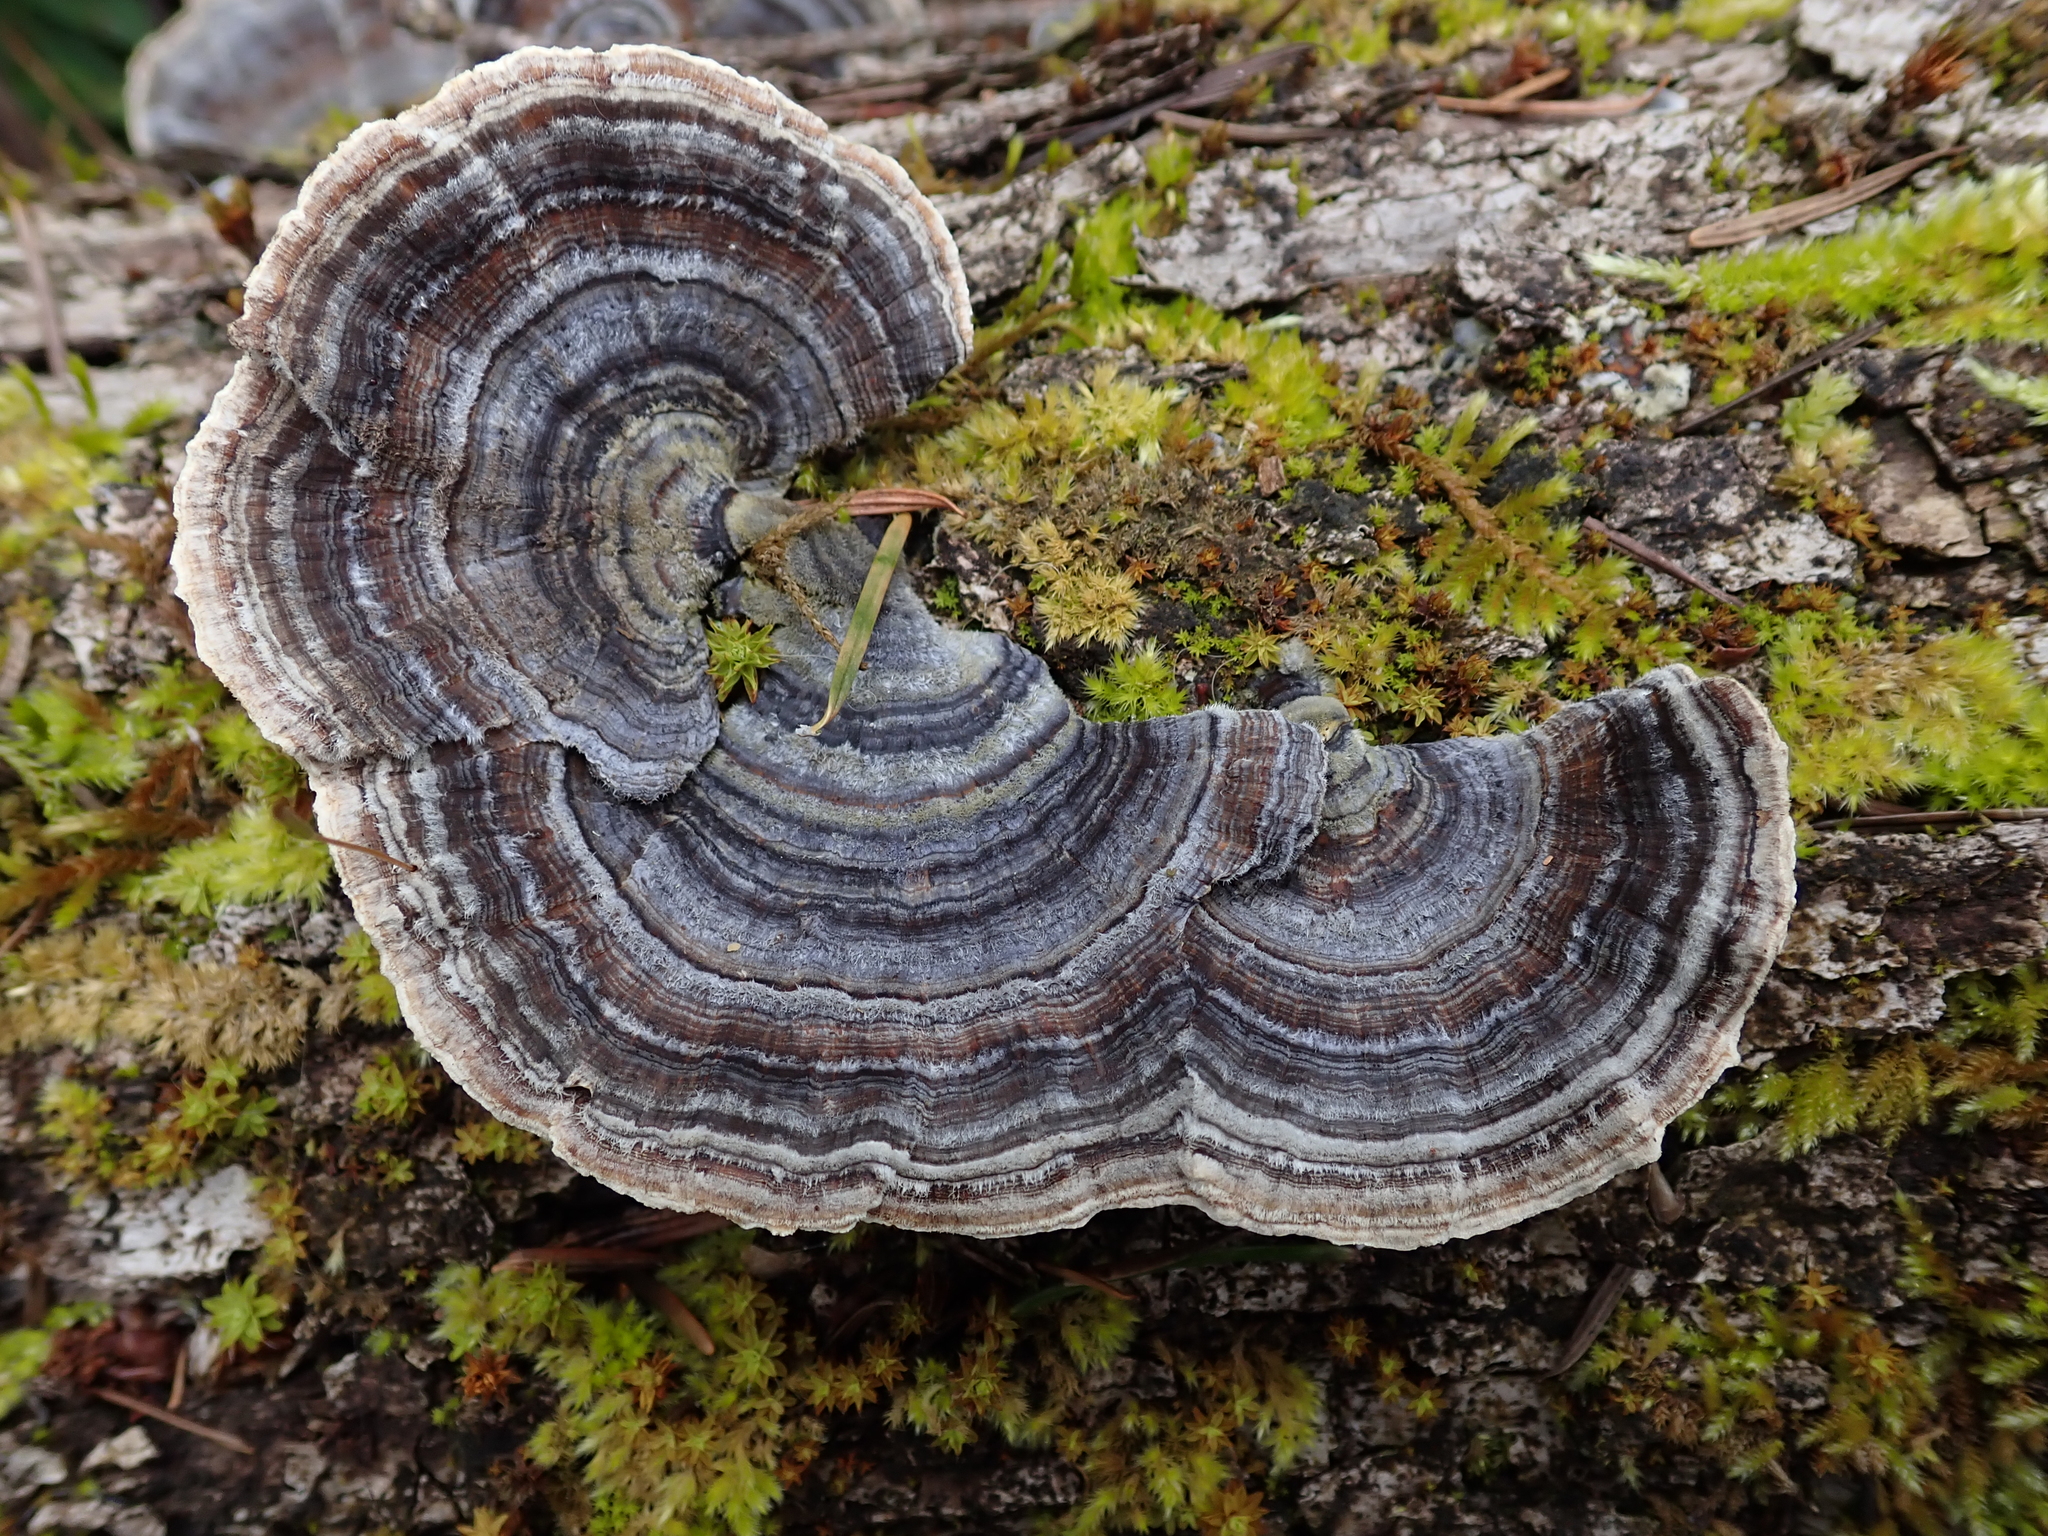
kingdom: Fungi
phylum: Basidiomycota
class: Agaricomycetes
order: Polyporales
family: Polyporaceae
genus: Trametes
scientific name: Trametes versicolor
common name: Turkeytail
